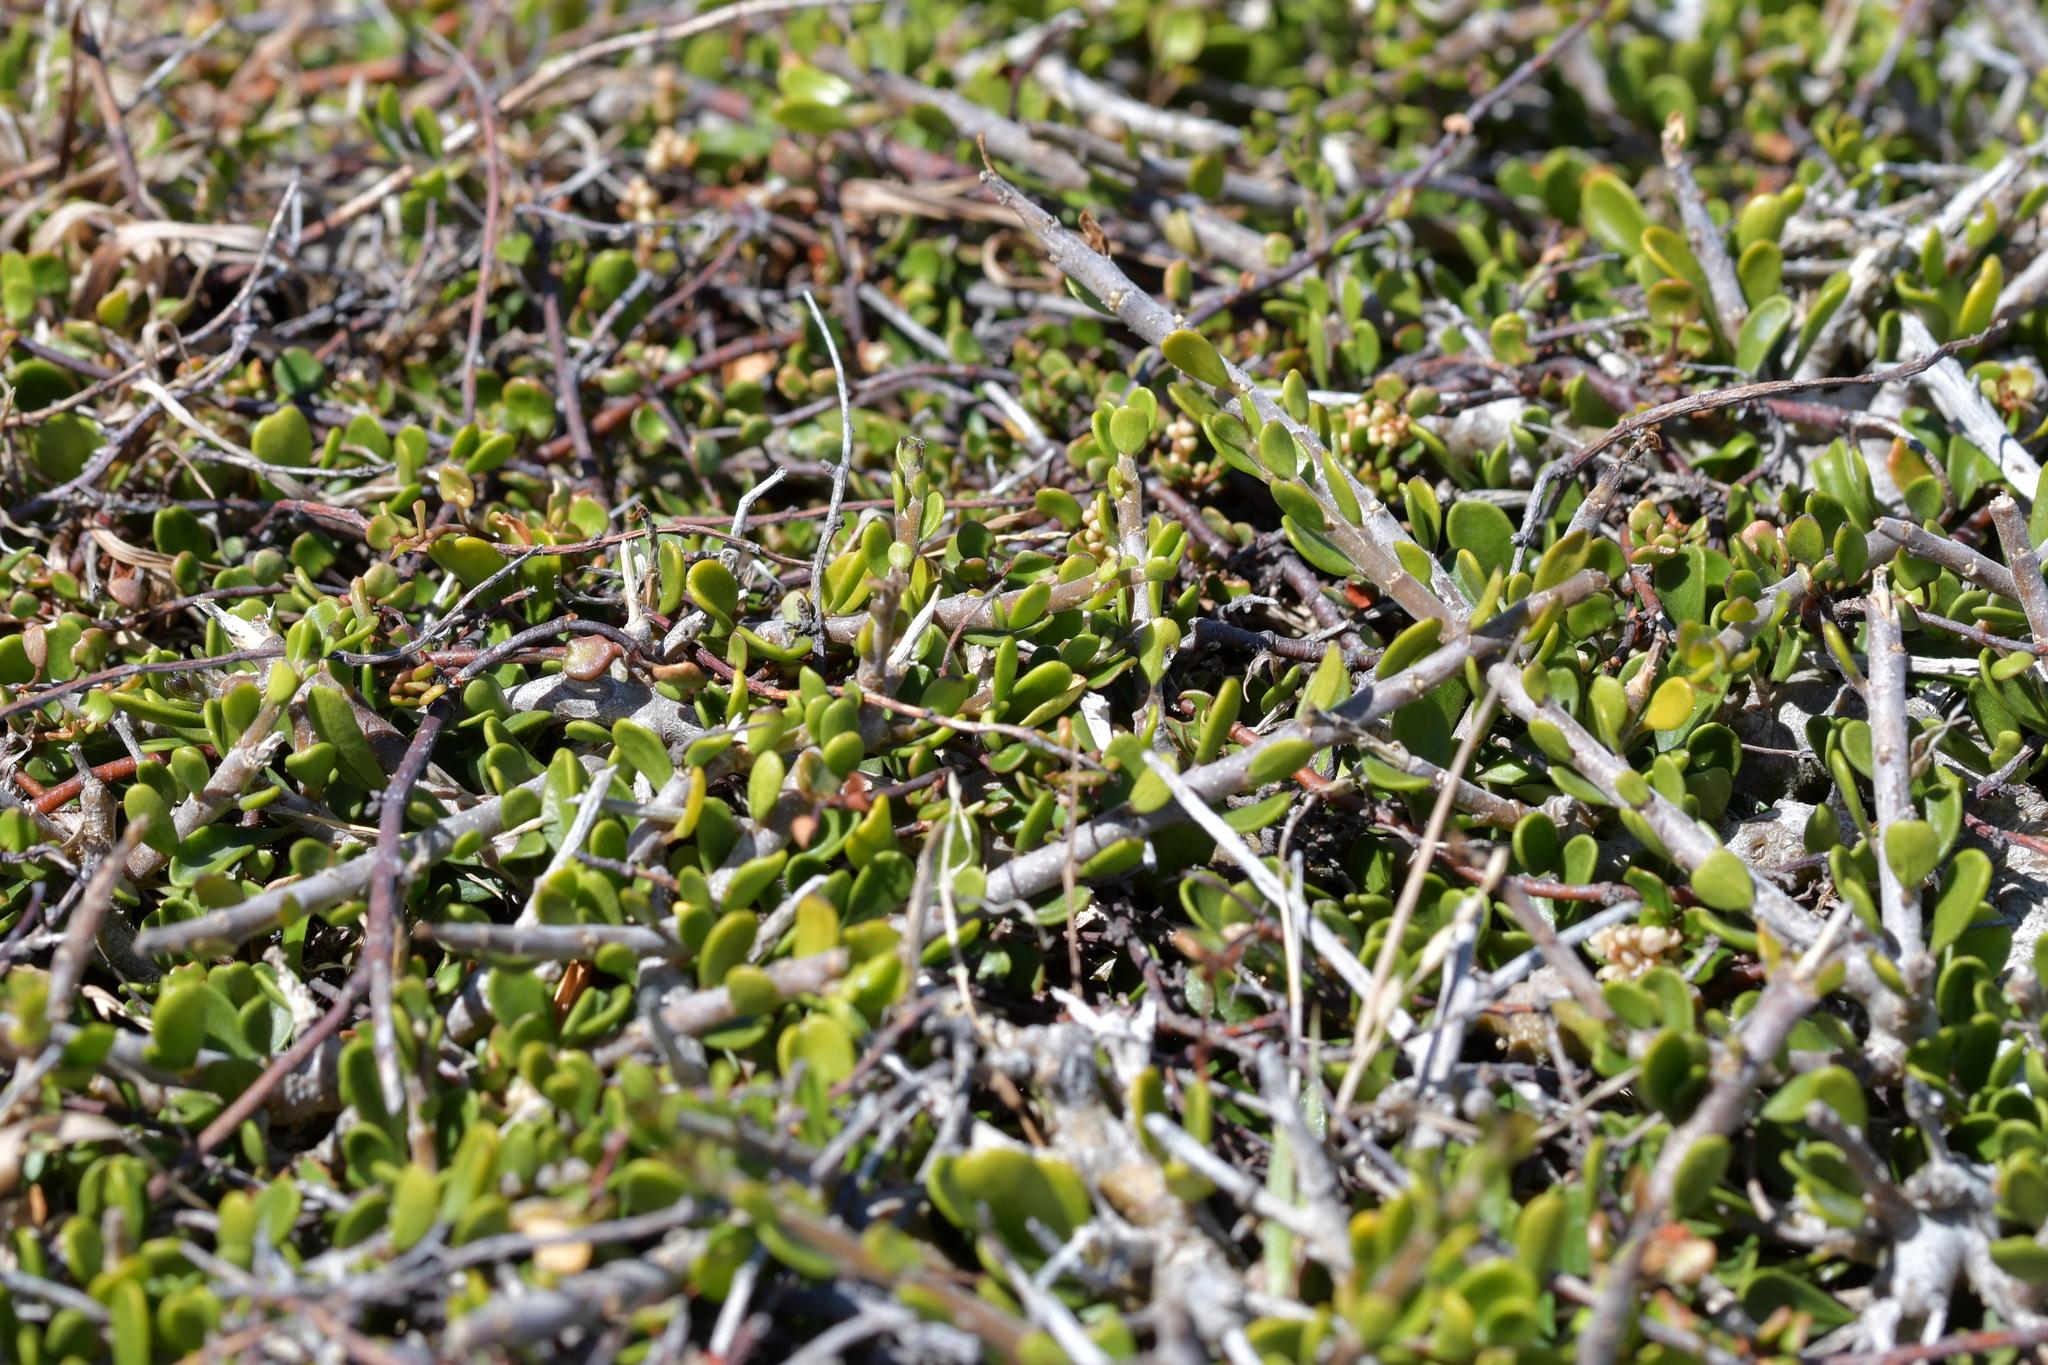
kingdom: Plantae
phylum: Tracheophyta
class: Magnoliopsida
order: Malpighiales
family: Violaceae
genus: Melicytus
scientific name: Melicytus crassifolius
